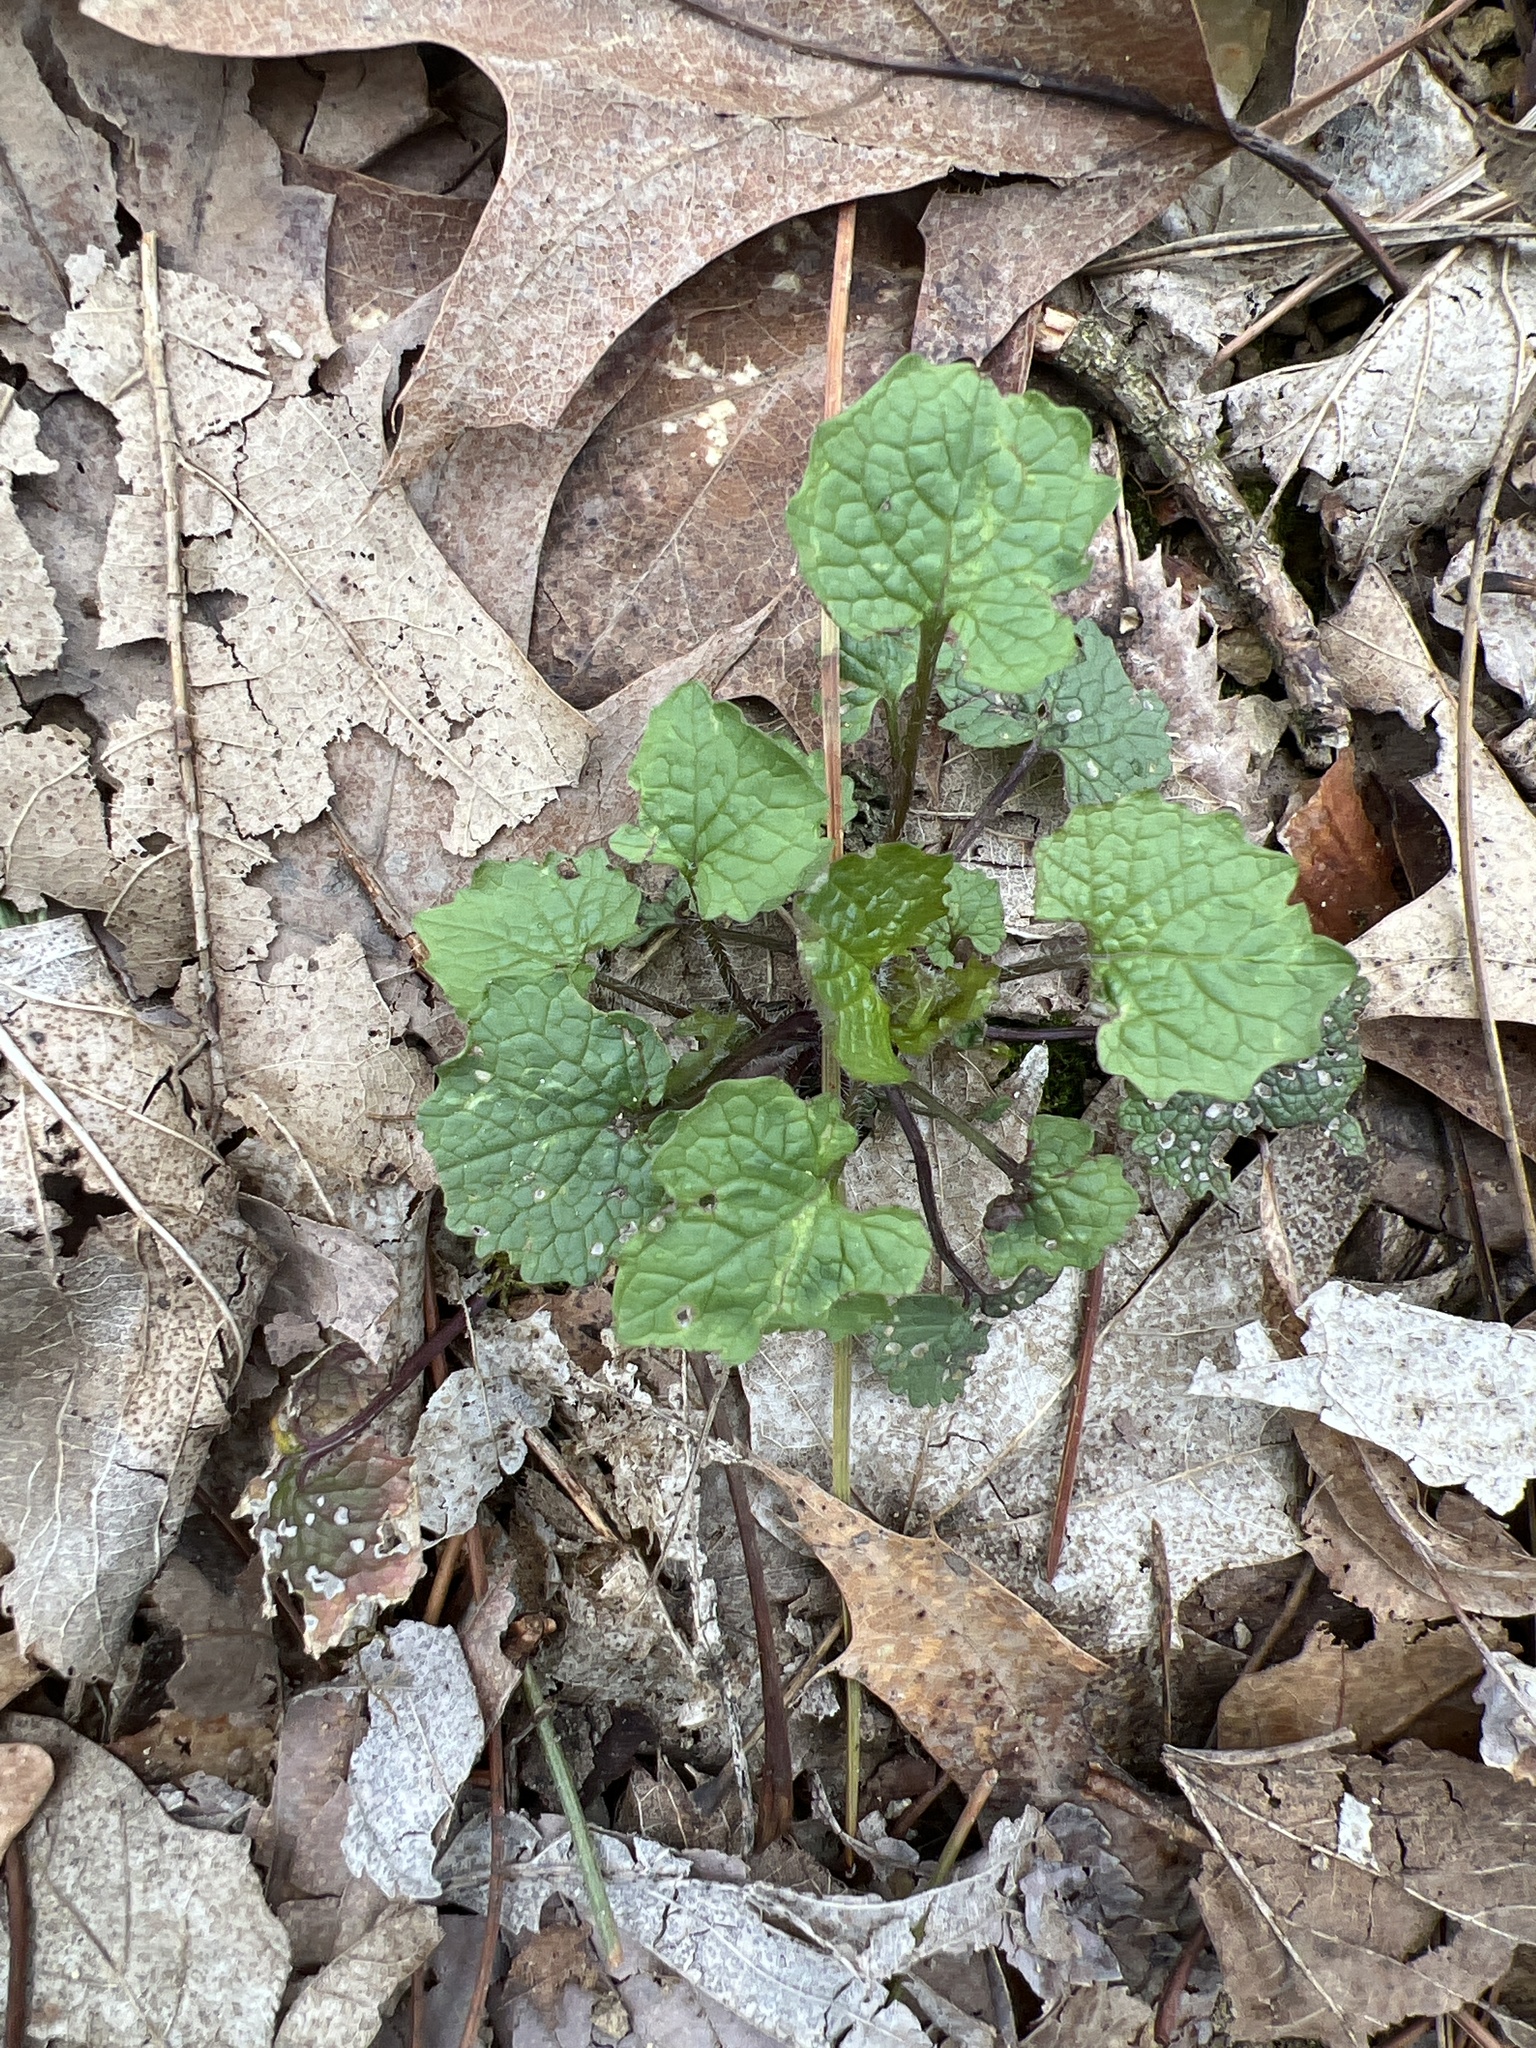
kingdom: Plantae
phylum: Tracheophyta
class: Magnoliopsida
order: Brassicales
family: Brassicaceae
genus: Alliaria
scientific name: Alliaria petiolata
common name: Garlic mustard
